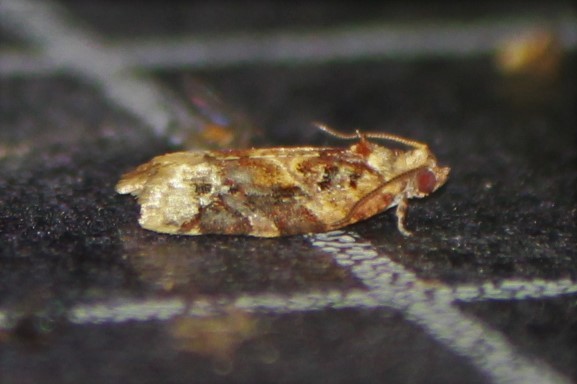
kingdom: Animalia
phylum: Arthropoda
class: Insecta
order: Lepidoptera
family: Tortricidae
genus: Argyrotaenia
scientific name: Argyrotaenia velutinana
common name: Red-banded leafroller moth
